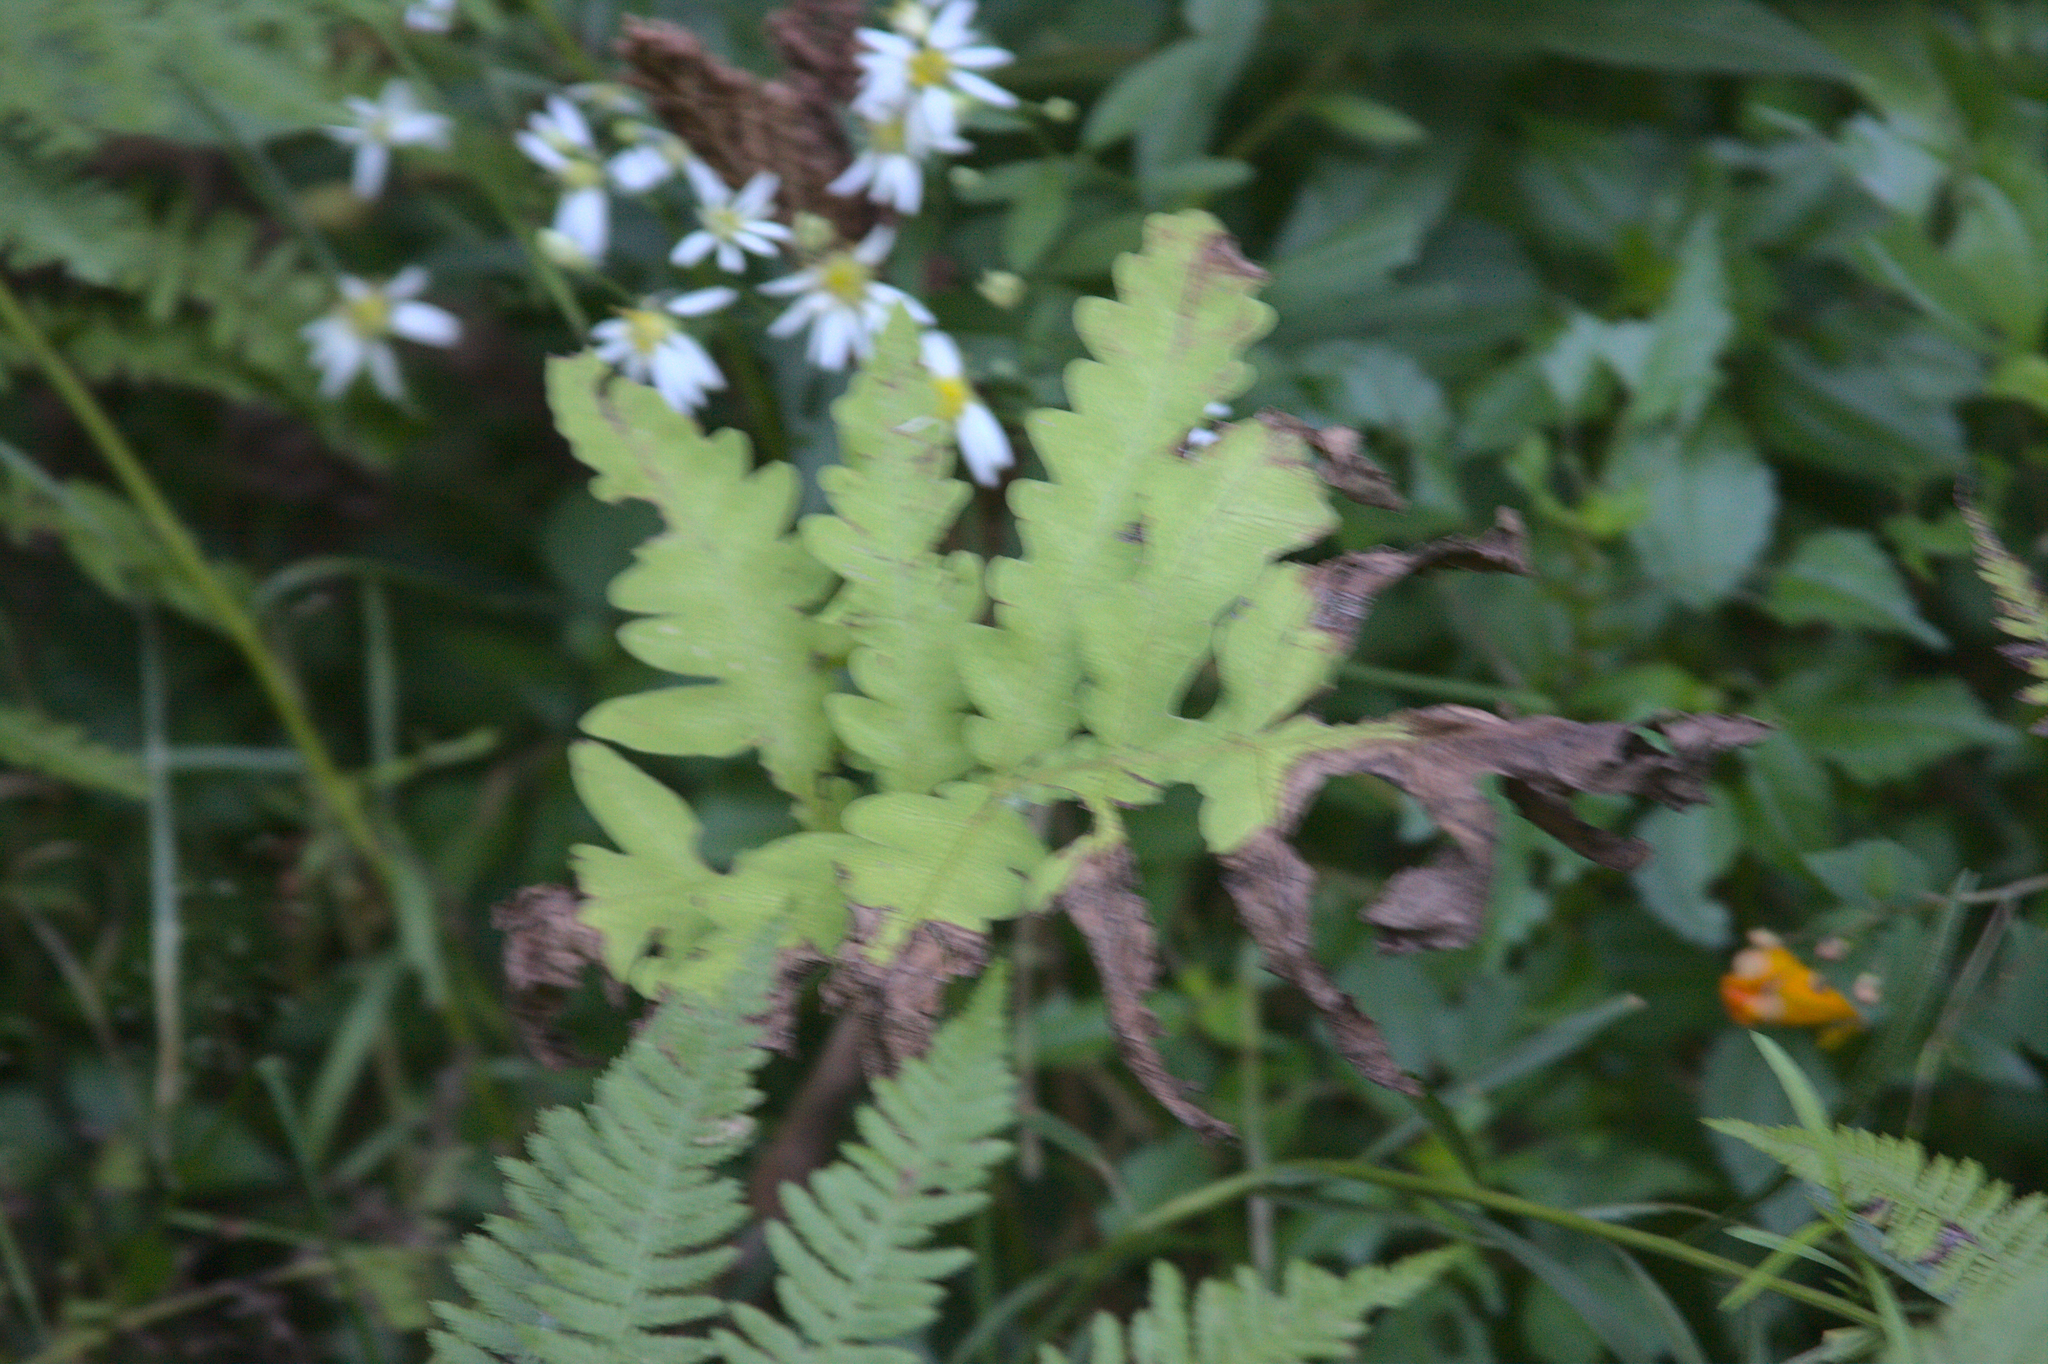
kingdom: Plantae
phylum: Tracheophyta
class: Polypodiopsida
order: Polypodiales
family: Onocleaceae
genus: Onoclea
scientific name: Onoclea sensibilis
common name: Sensitive fern
